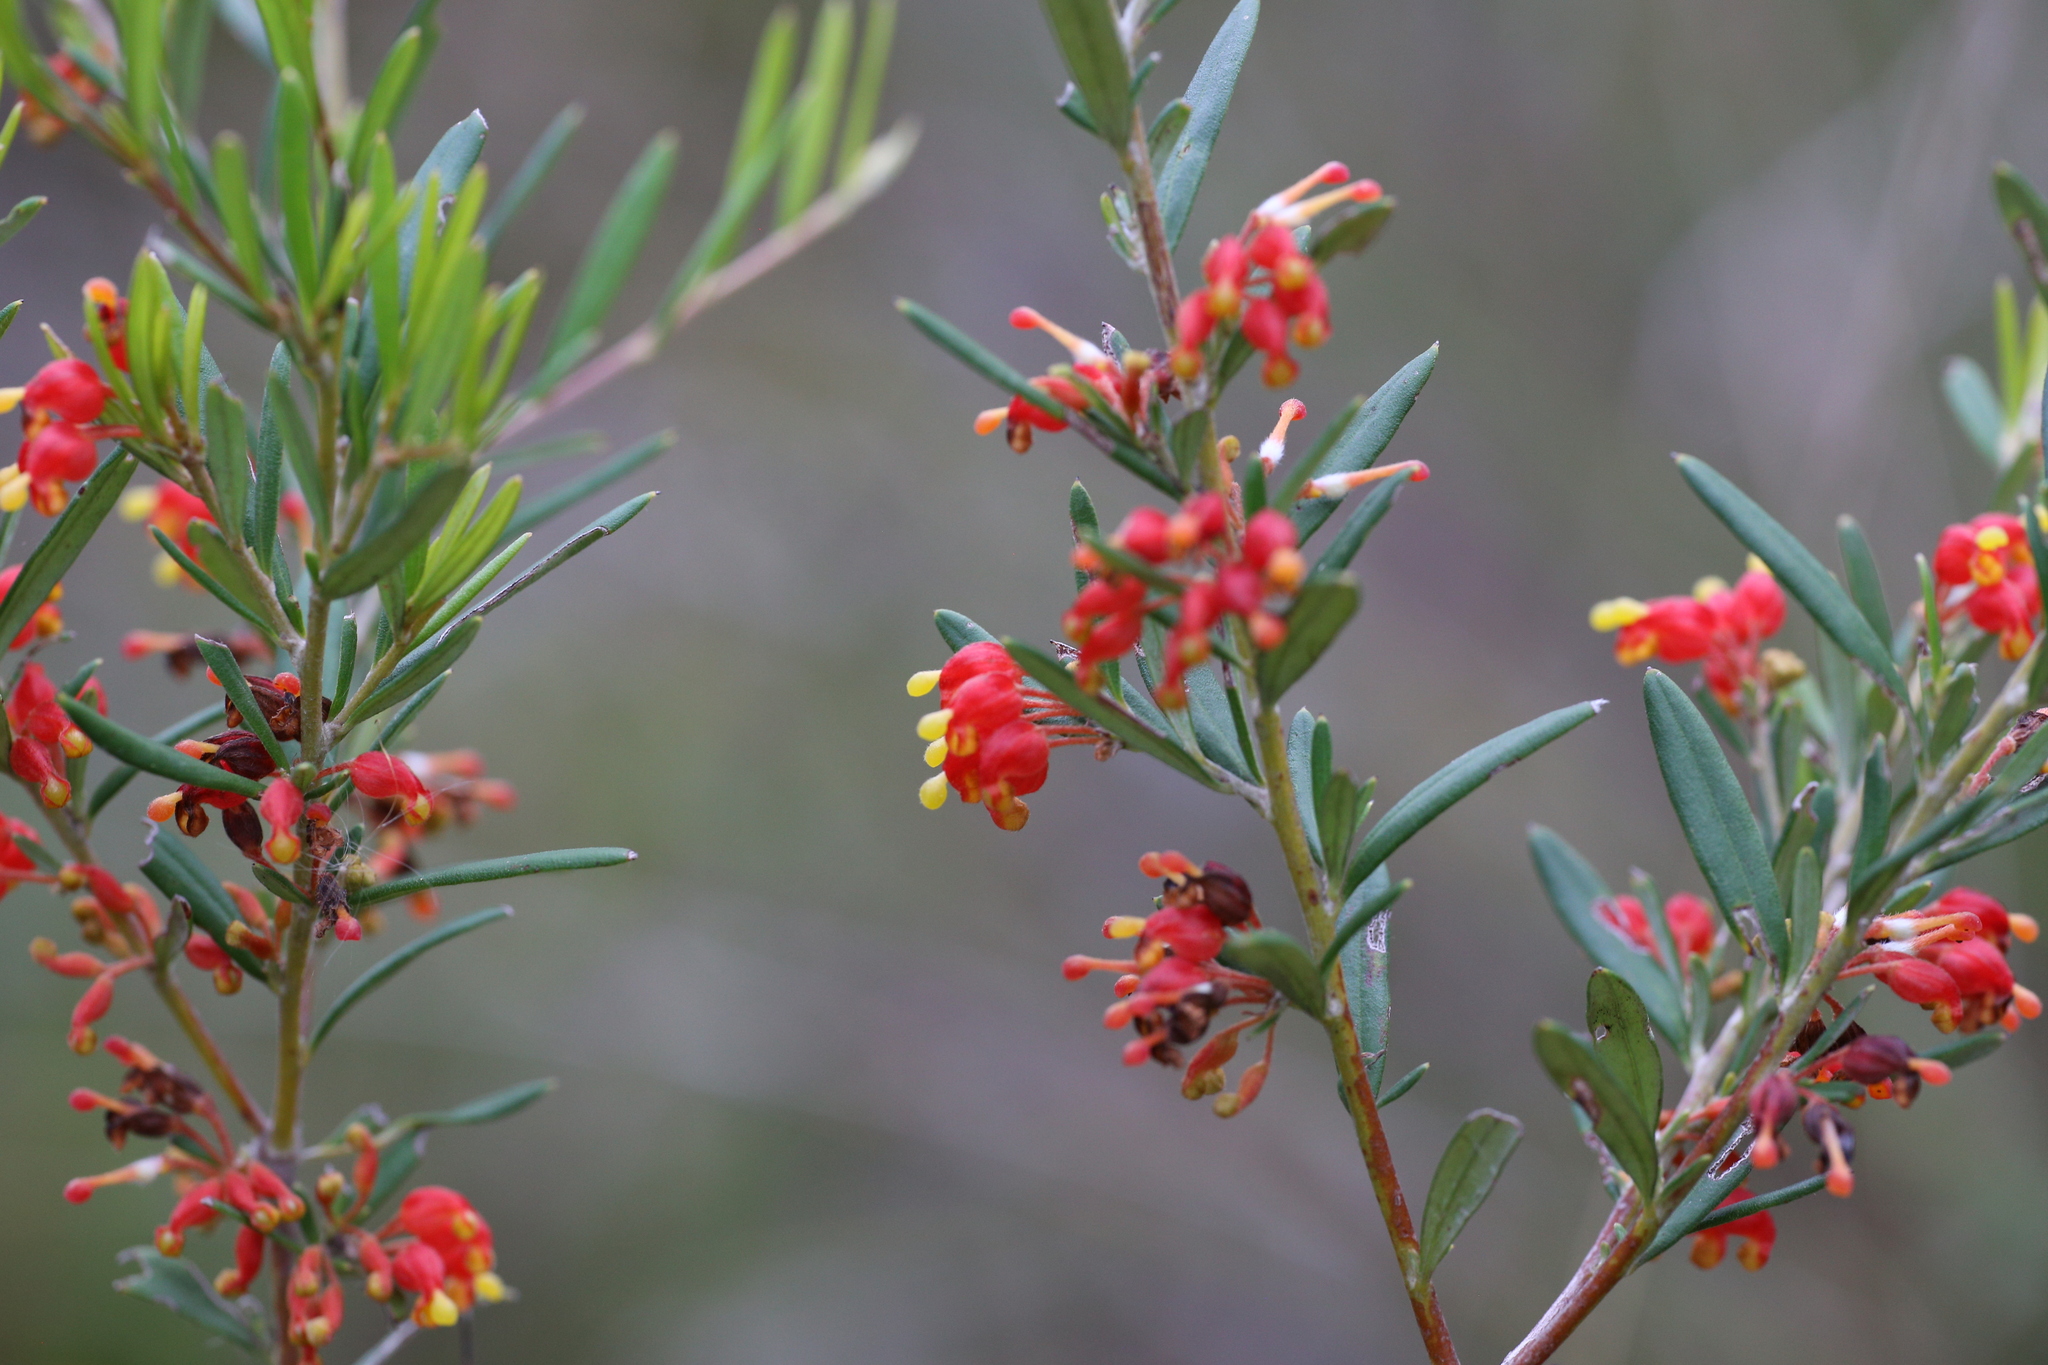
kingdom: Plantae
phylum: Tracheophyta
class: Magnoliopsida
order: Proteales
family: Proteaceae
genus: Grevillea
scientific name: Grevillea fasciculata
